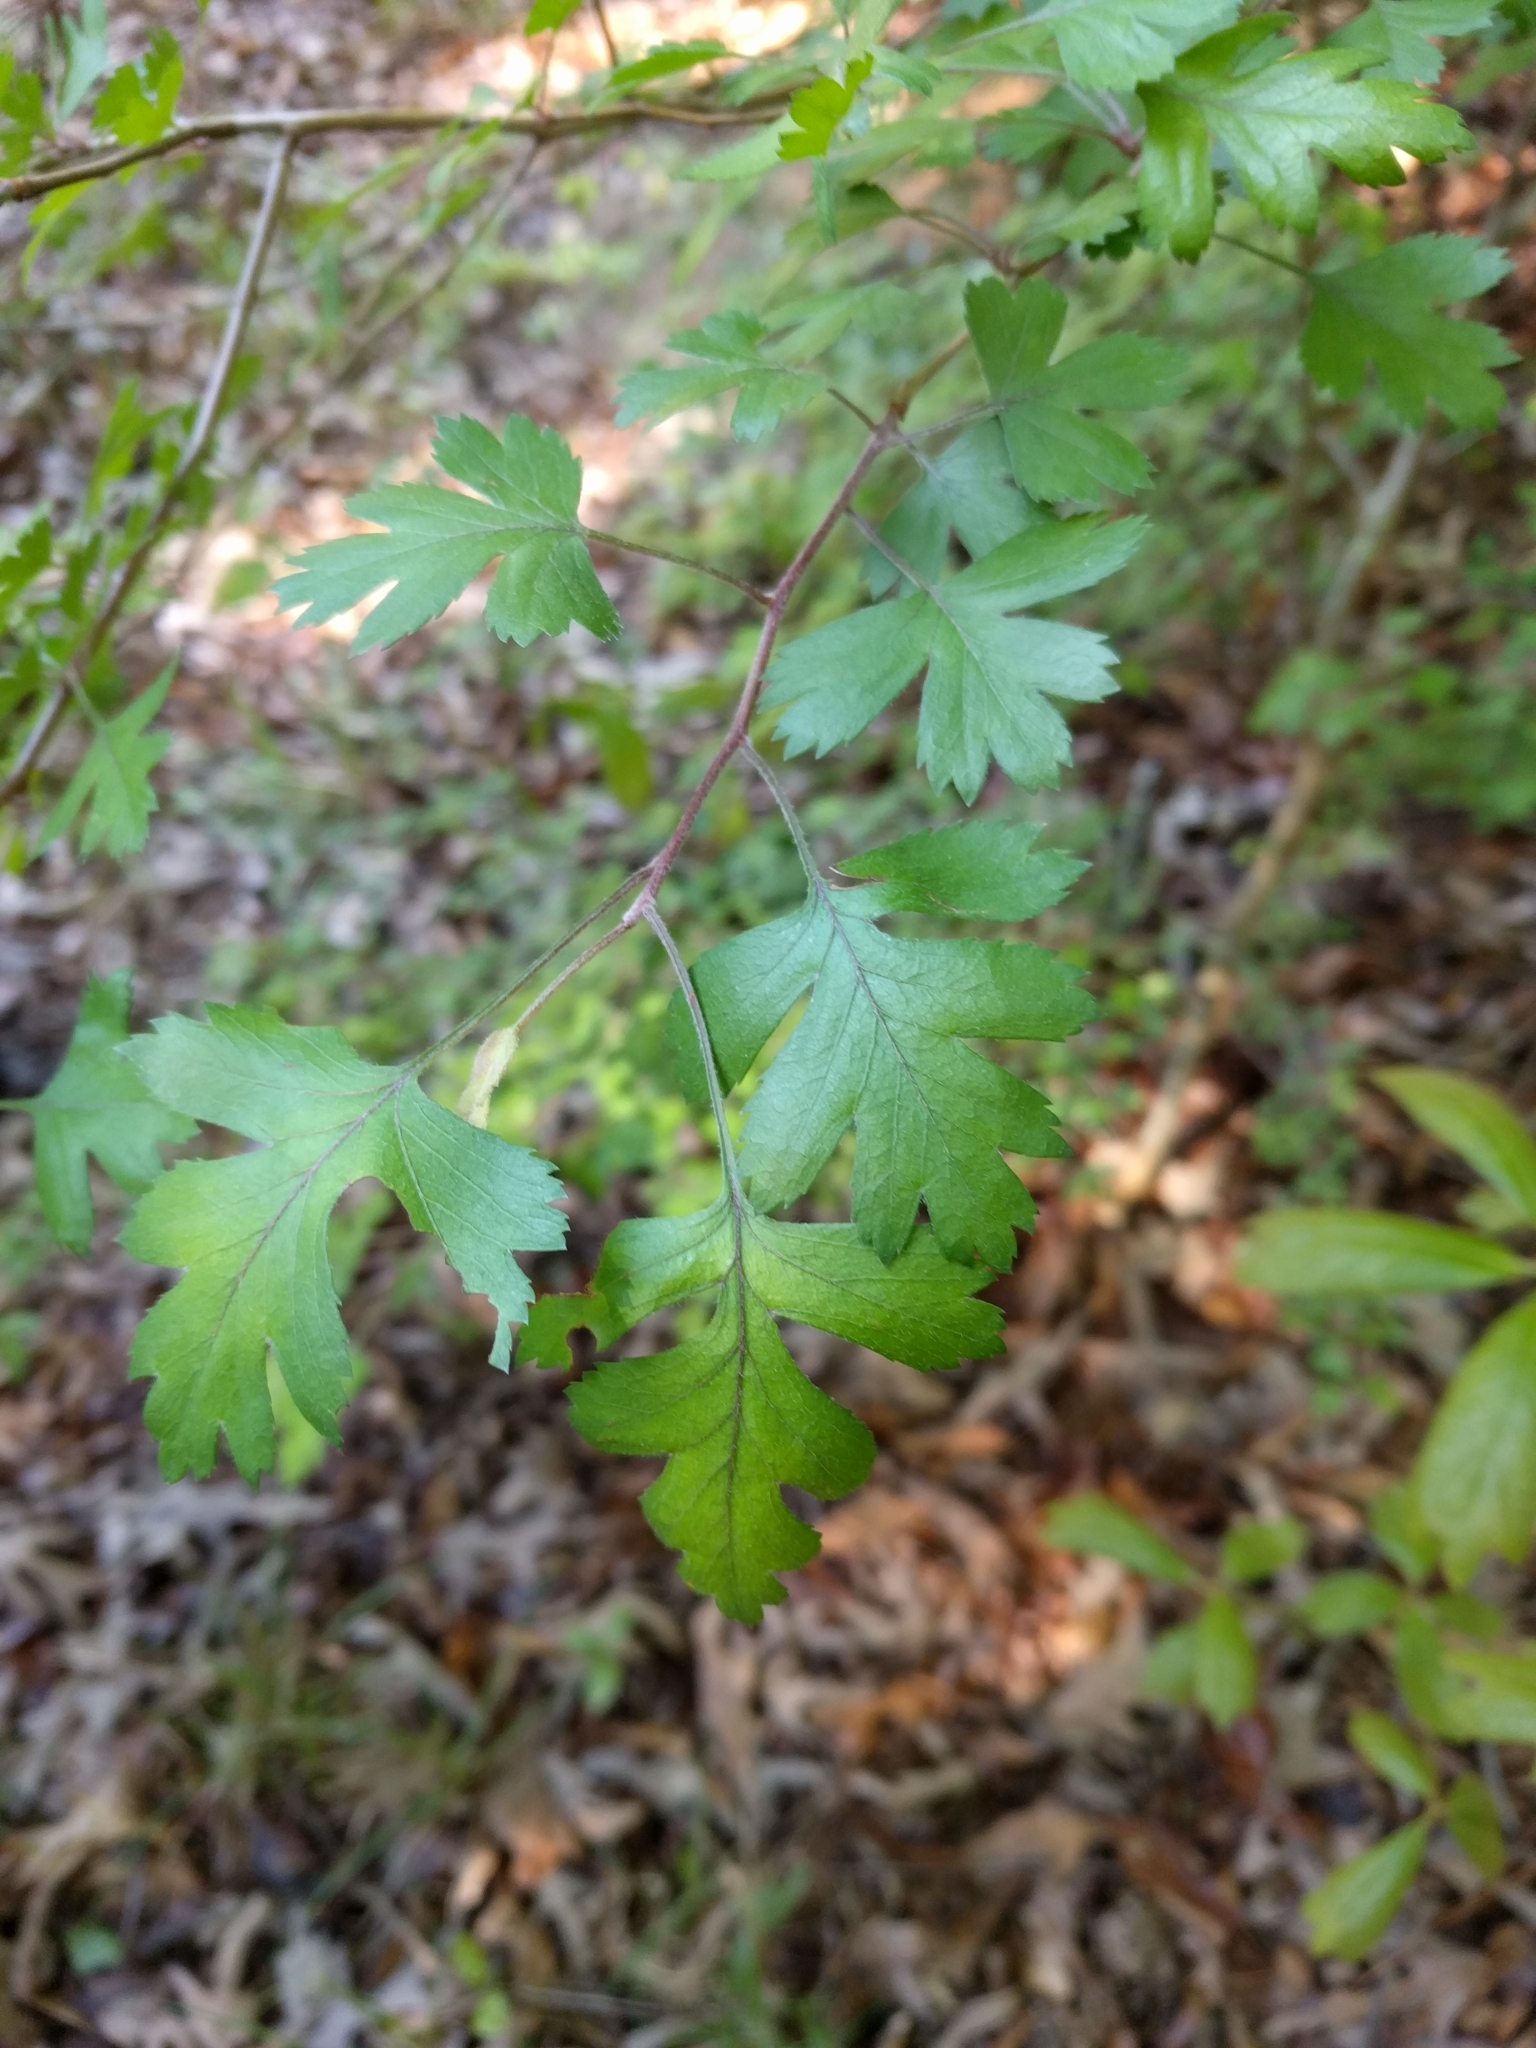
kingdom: Plantae
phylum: Tracheophyta
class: Magnoliopsida
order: Rosales
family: Rosaceae
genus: Crataegus
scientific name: Crataegus marshallii
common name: Parsley-hawthorn
